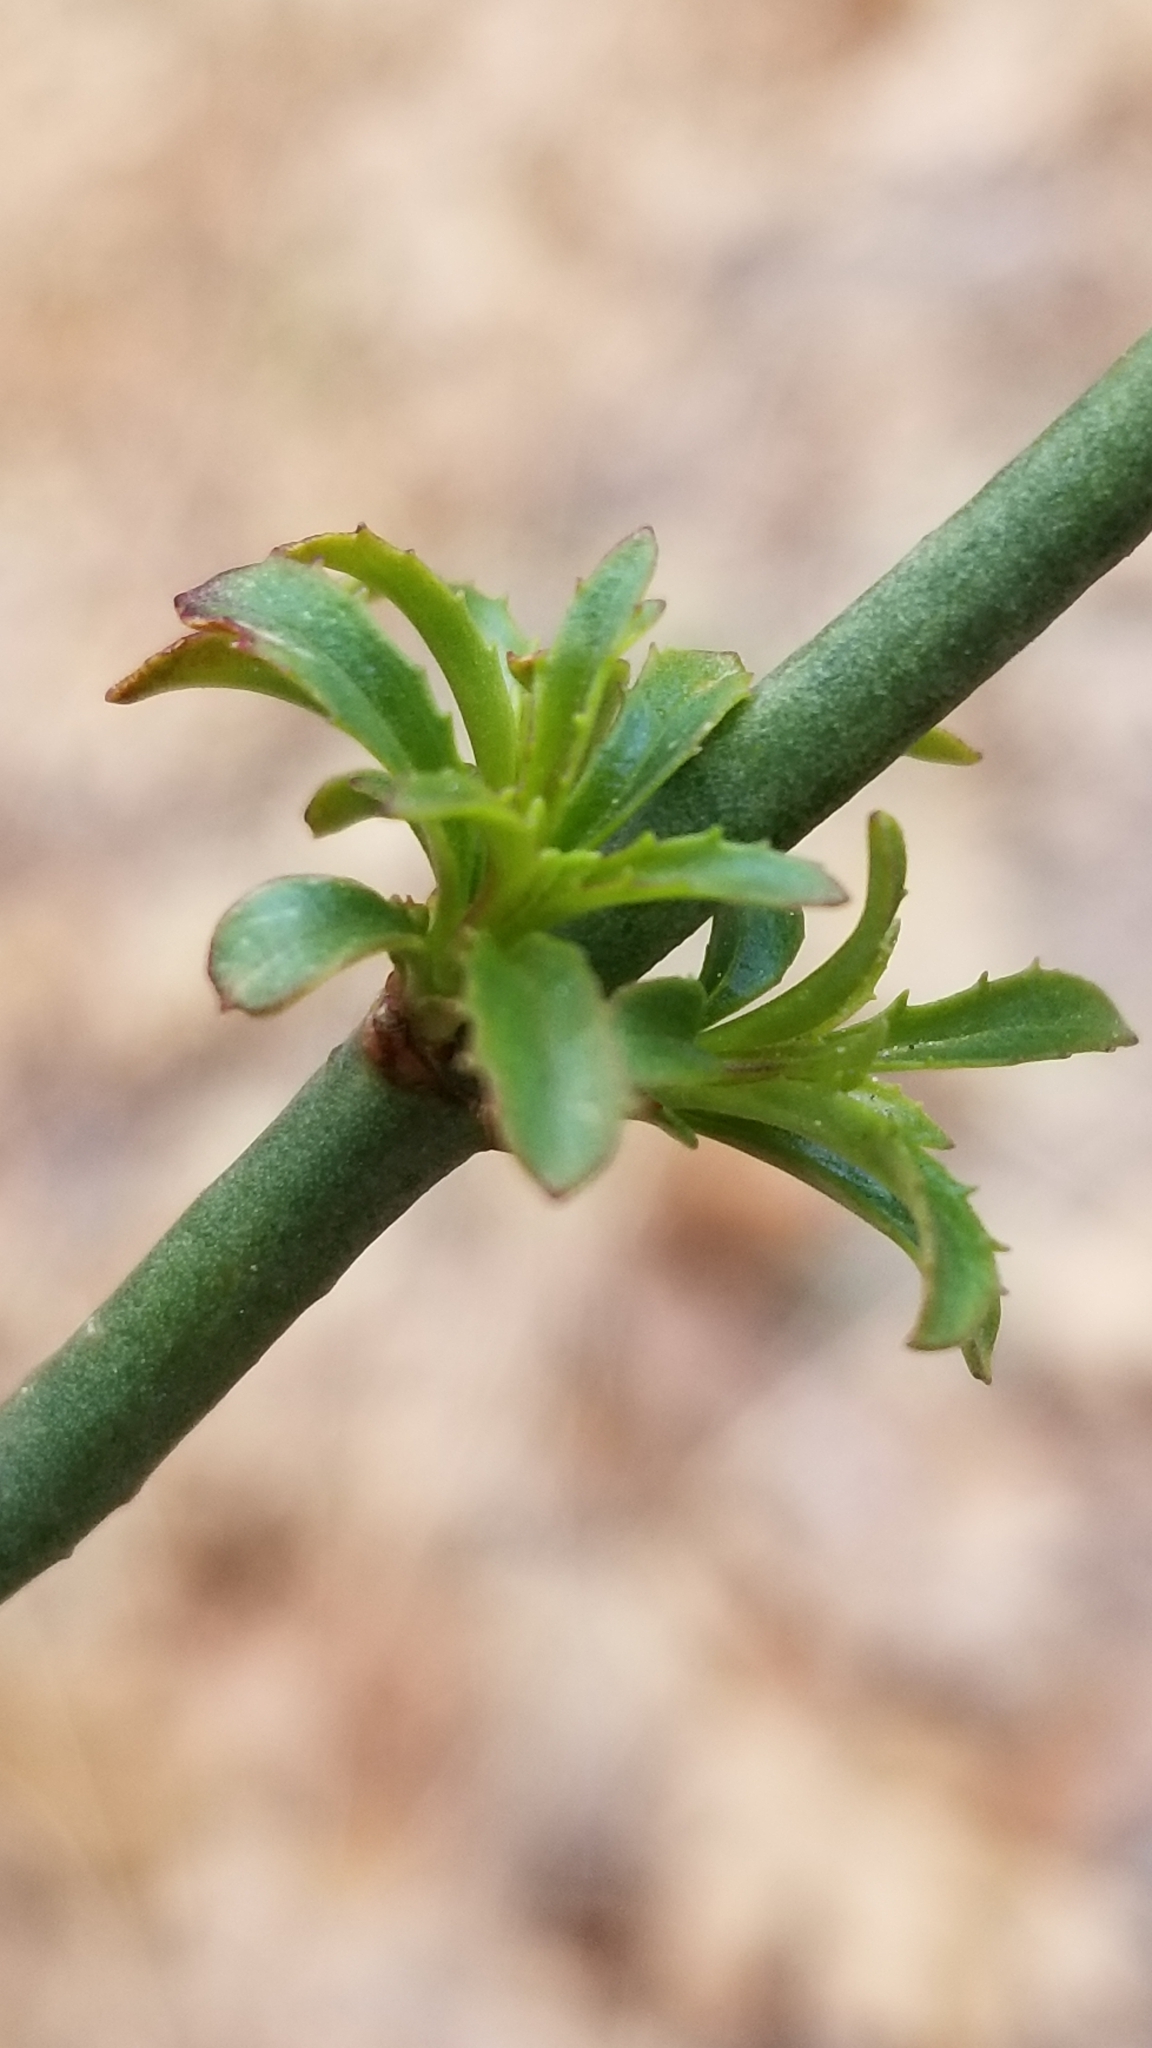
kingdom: Plantae
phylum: Tracheophyta
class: Magnoliopsida
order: Lamiales
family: Plantaginaceae
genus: Keckiella
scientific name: Keckiella ternata
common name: Scarlet keckiella
